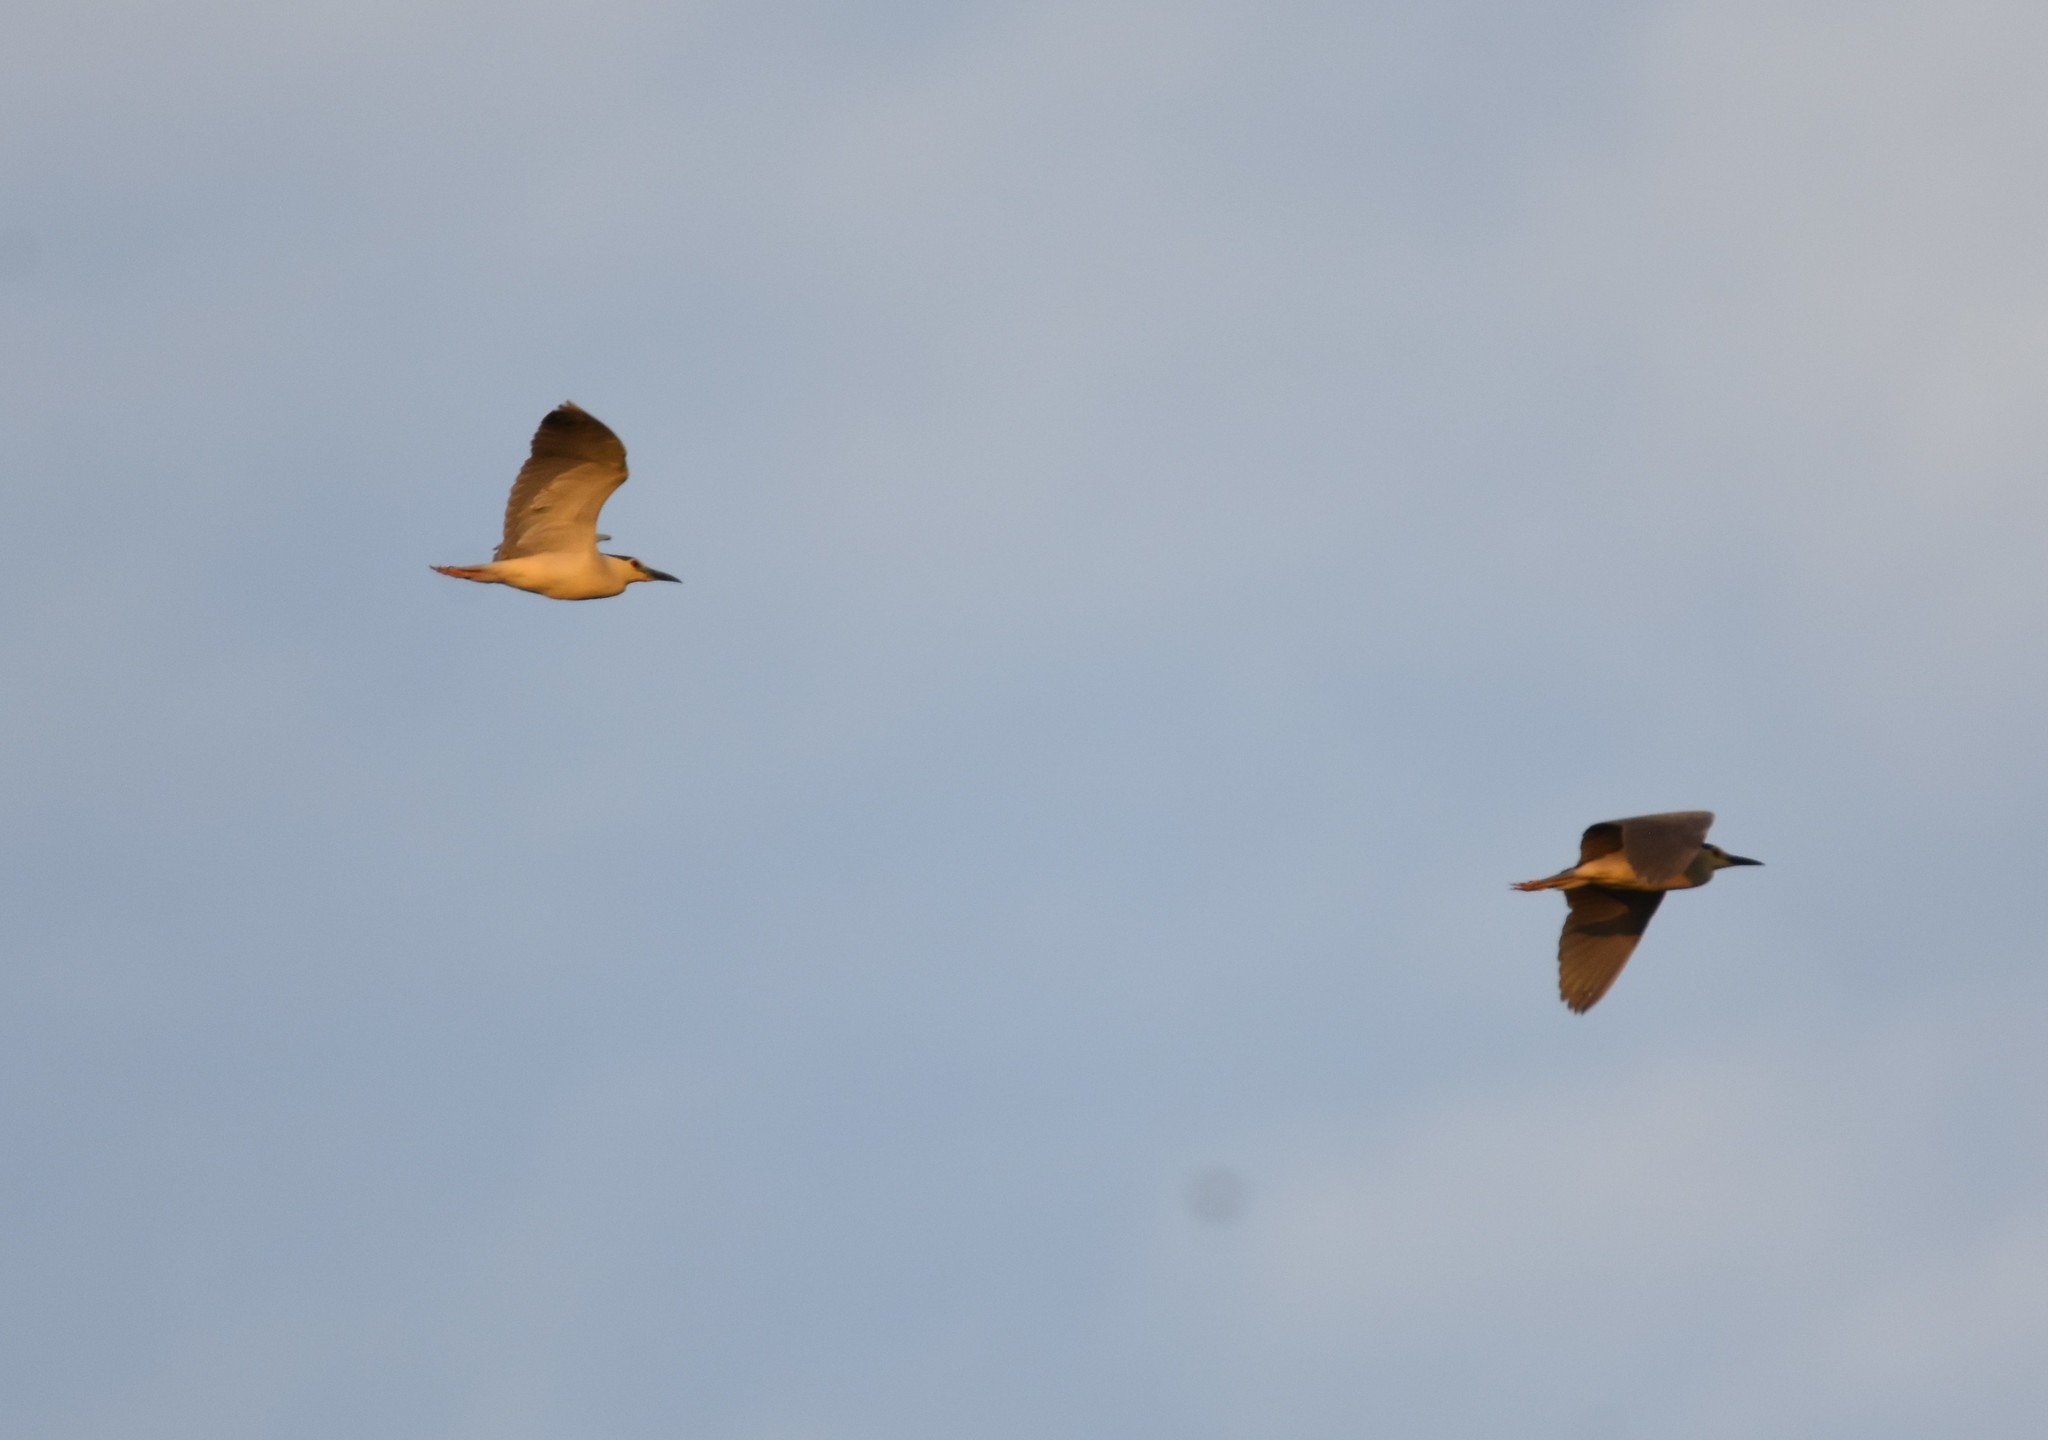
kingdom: Animalia
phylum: Chordata
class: Aves
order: Pelecaniformes
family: Ardeidae
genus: Nycticorax
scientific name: Nycticorax nycticorax
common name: Black-crowned night heron
